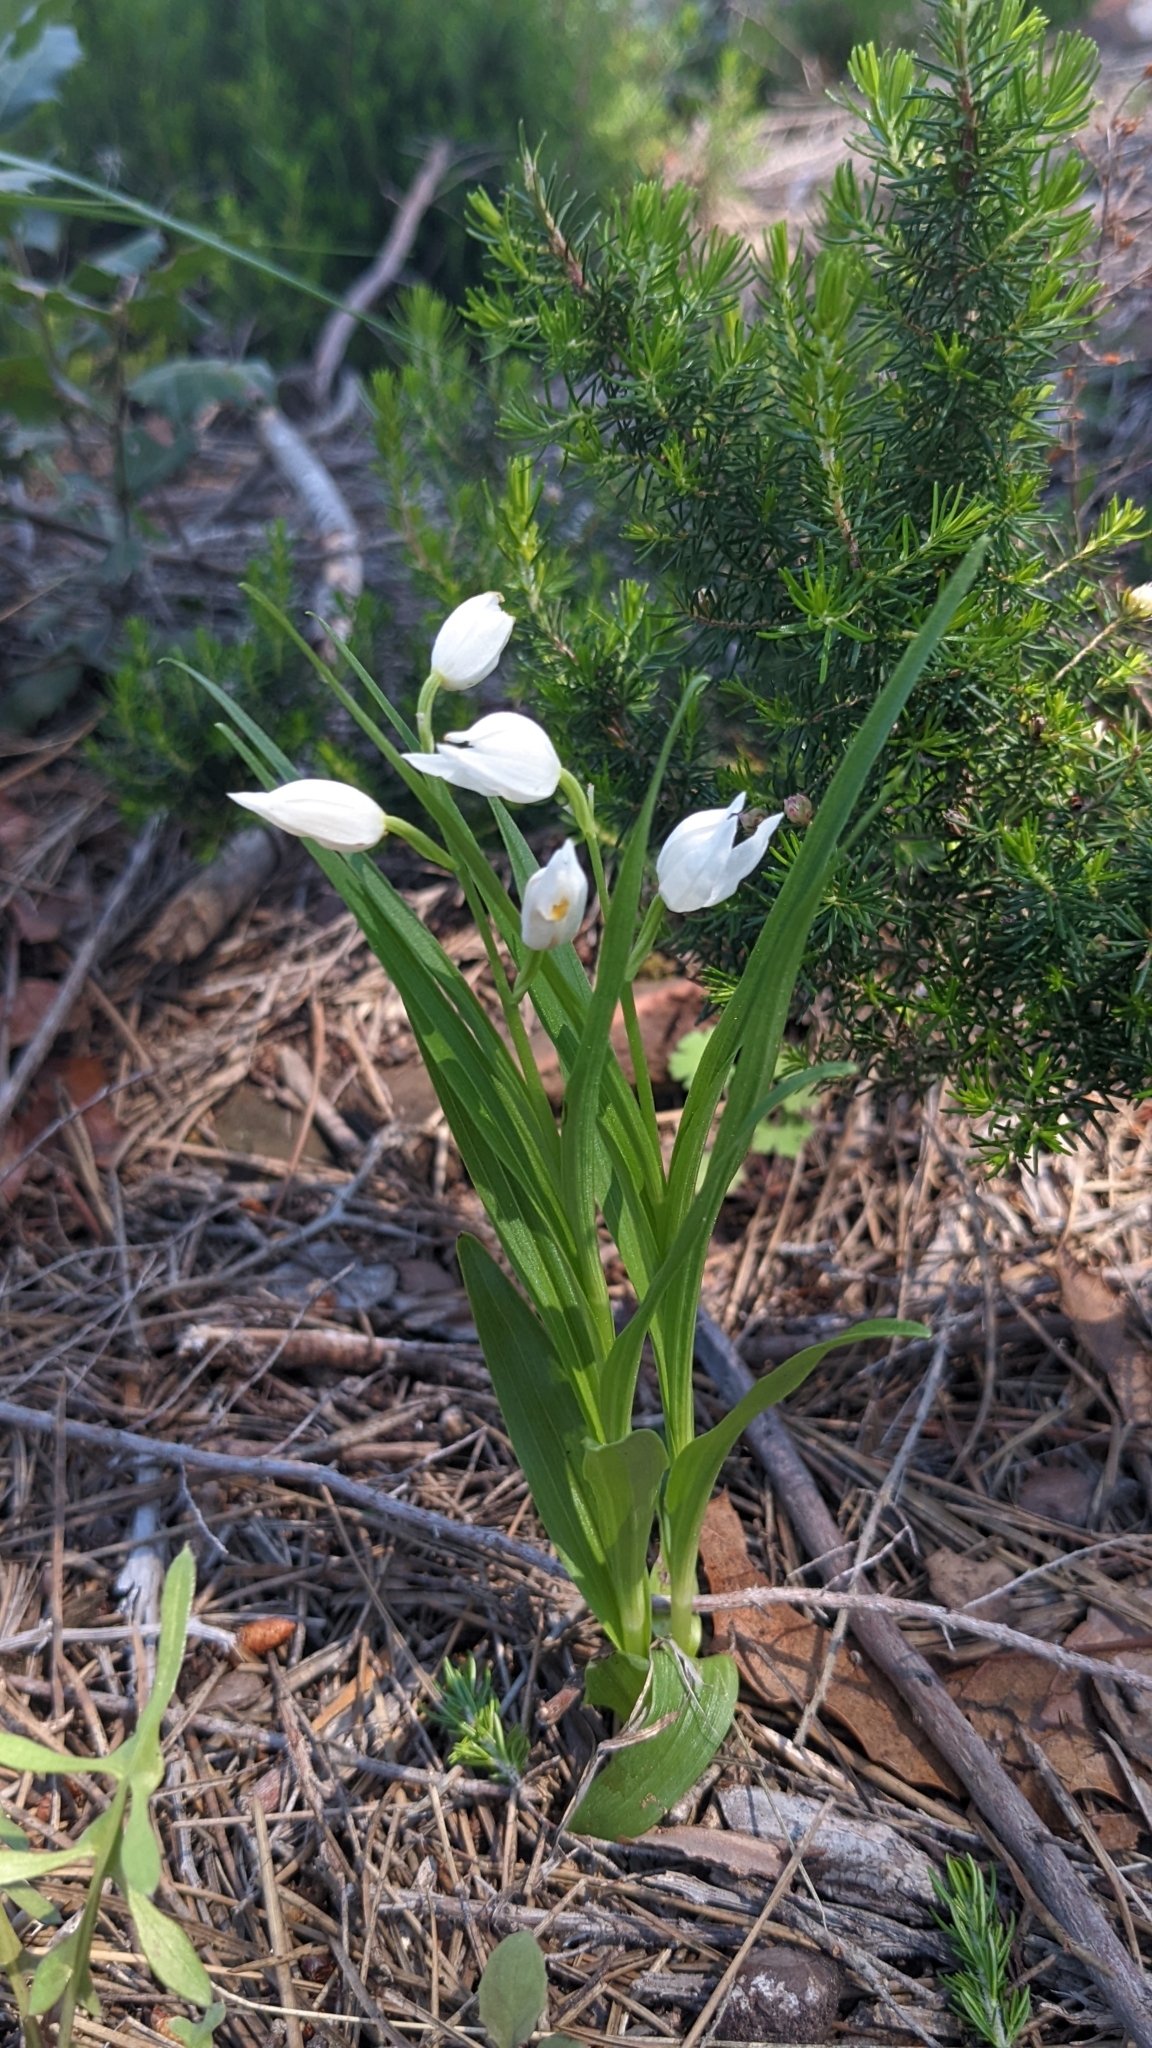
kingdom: Plantae
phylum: Tracheophyta
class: Liliopsida
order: Asparagales
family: Orchidaceae
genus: Cephalanthera
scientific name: Cephalanthera longifolia
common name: Narrow-leaved helleborine
